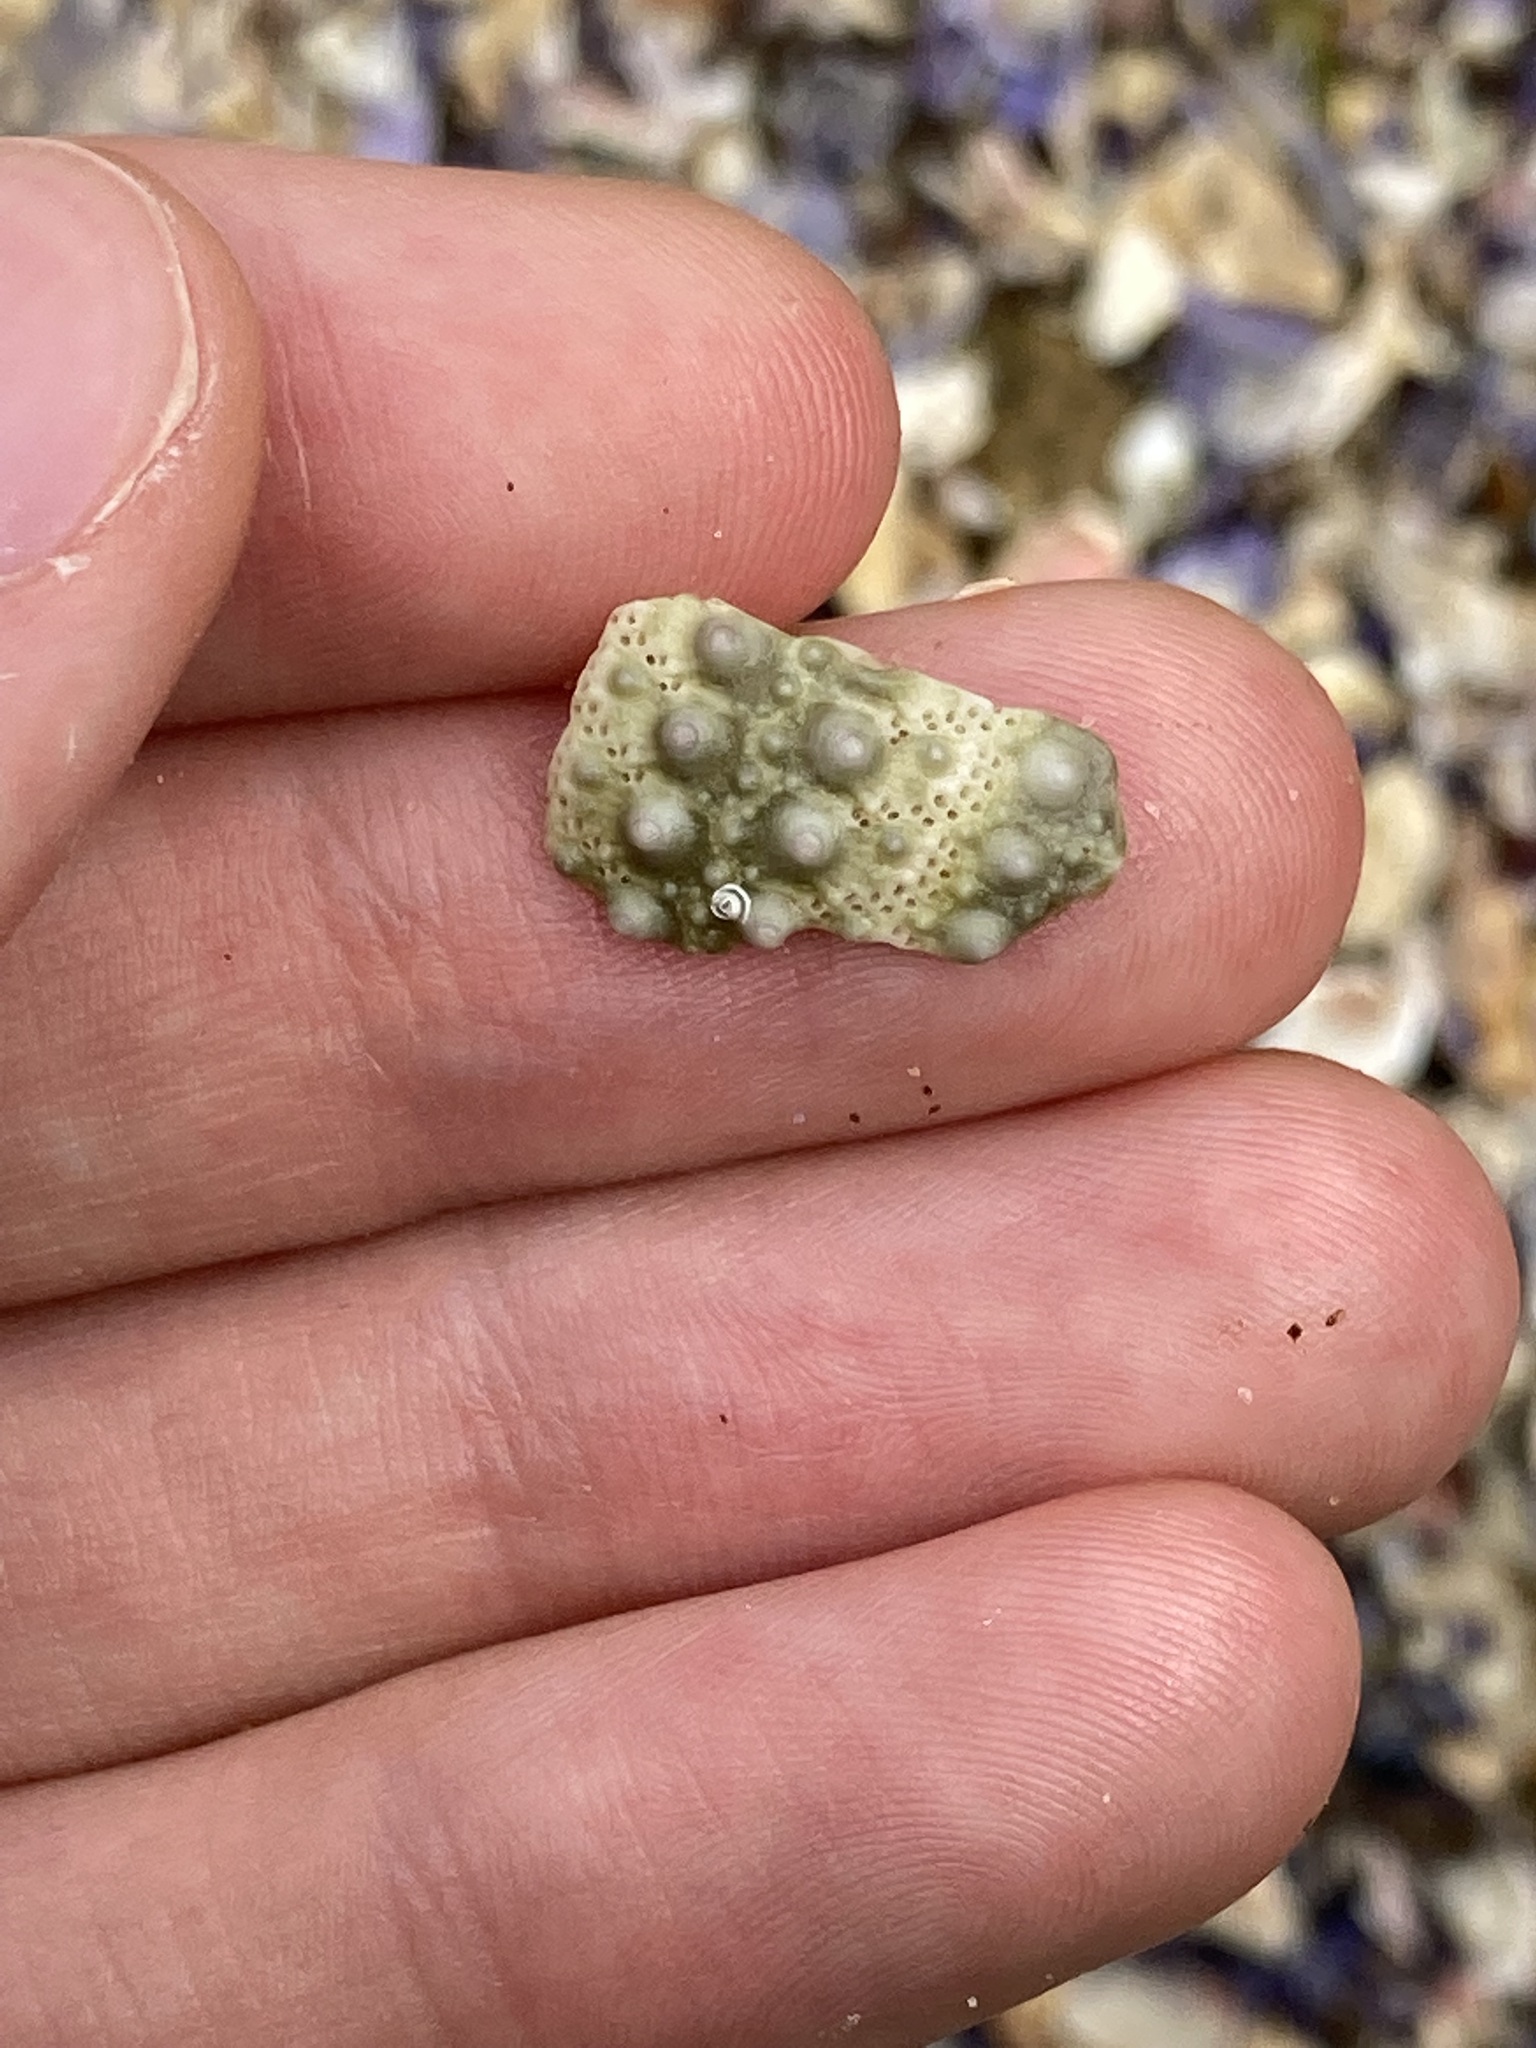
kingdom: Animalia
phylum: Echinodermata
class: Echinoidea
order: Camarodonta
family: Echinometridae
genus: Heliocidaris
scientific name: Heliocidaris erythrogramma
